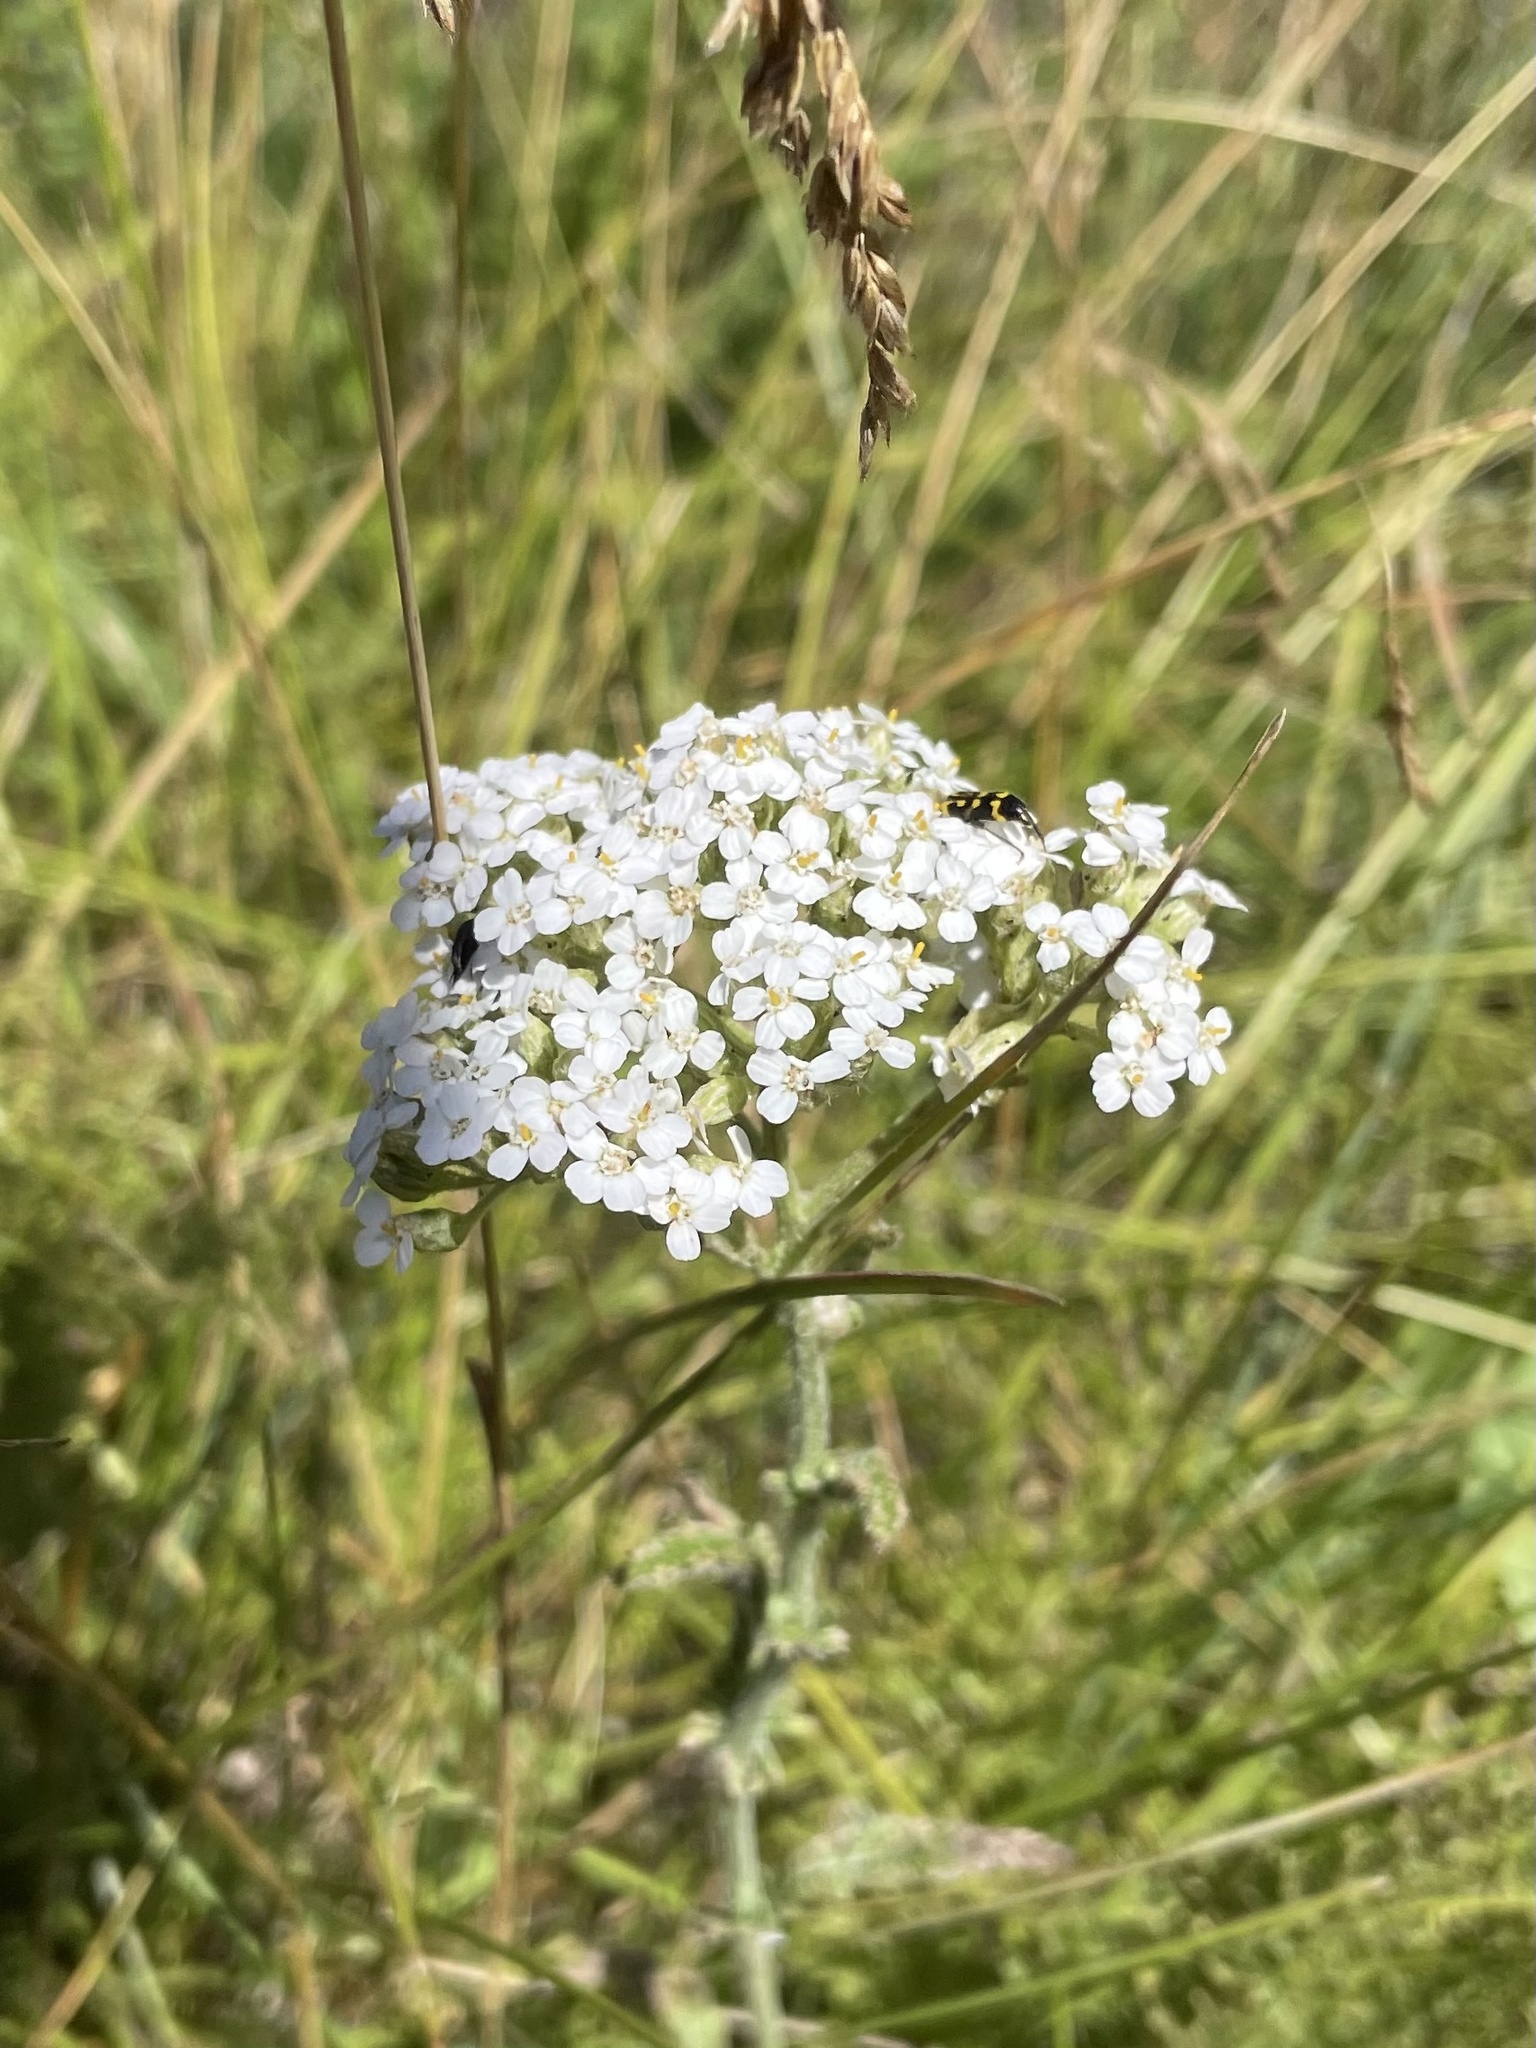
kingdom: Plantae
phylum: Tracheophyta
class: Magnoliopsida
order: Asterales
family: Asteraceae
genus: Achillea
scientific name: Achillea millefolium
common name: Yarrow
